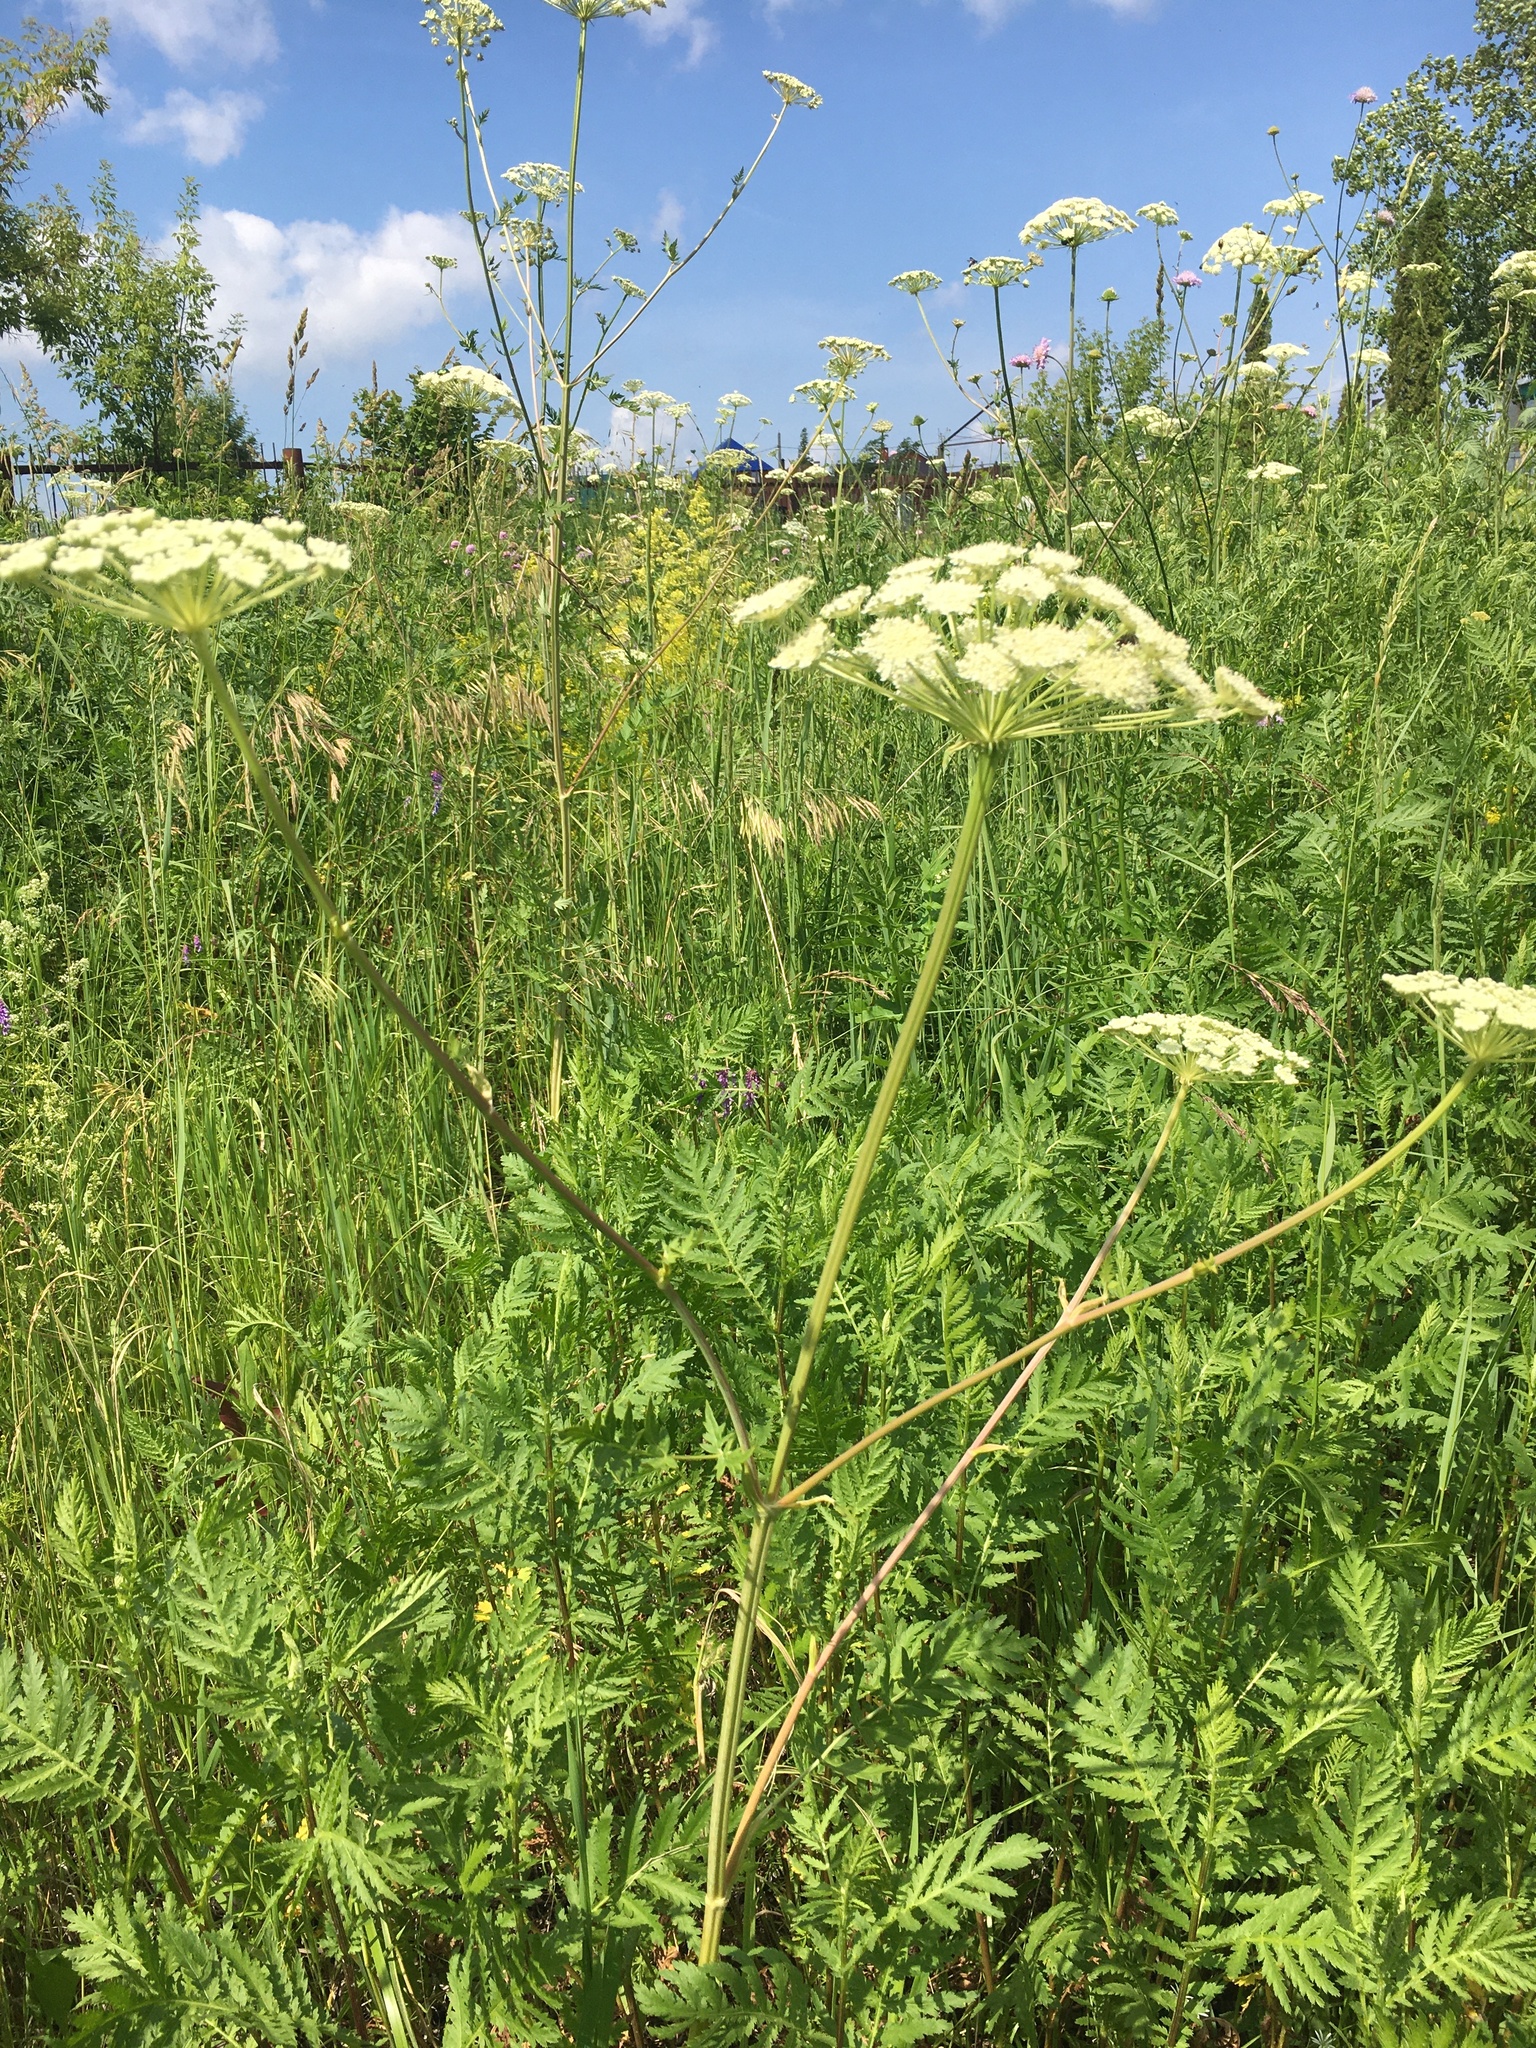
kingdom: Plantae
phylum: Tracheophyta
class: Magnoliopsida
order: Apiales
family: Apiaceae
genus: Seseli
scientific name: Seseli libanotis
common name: Mooncarrot
